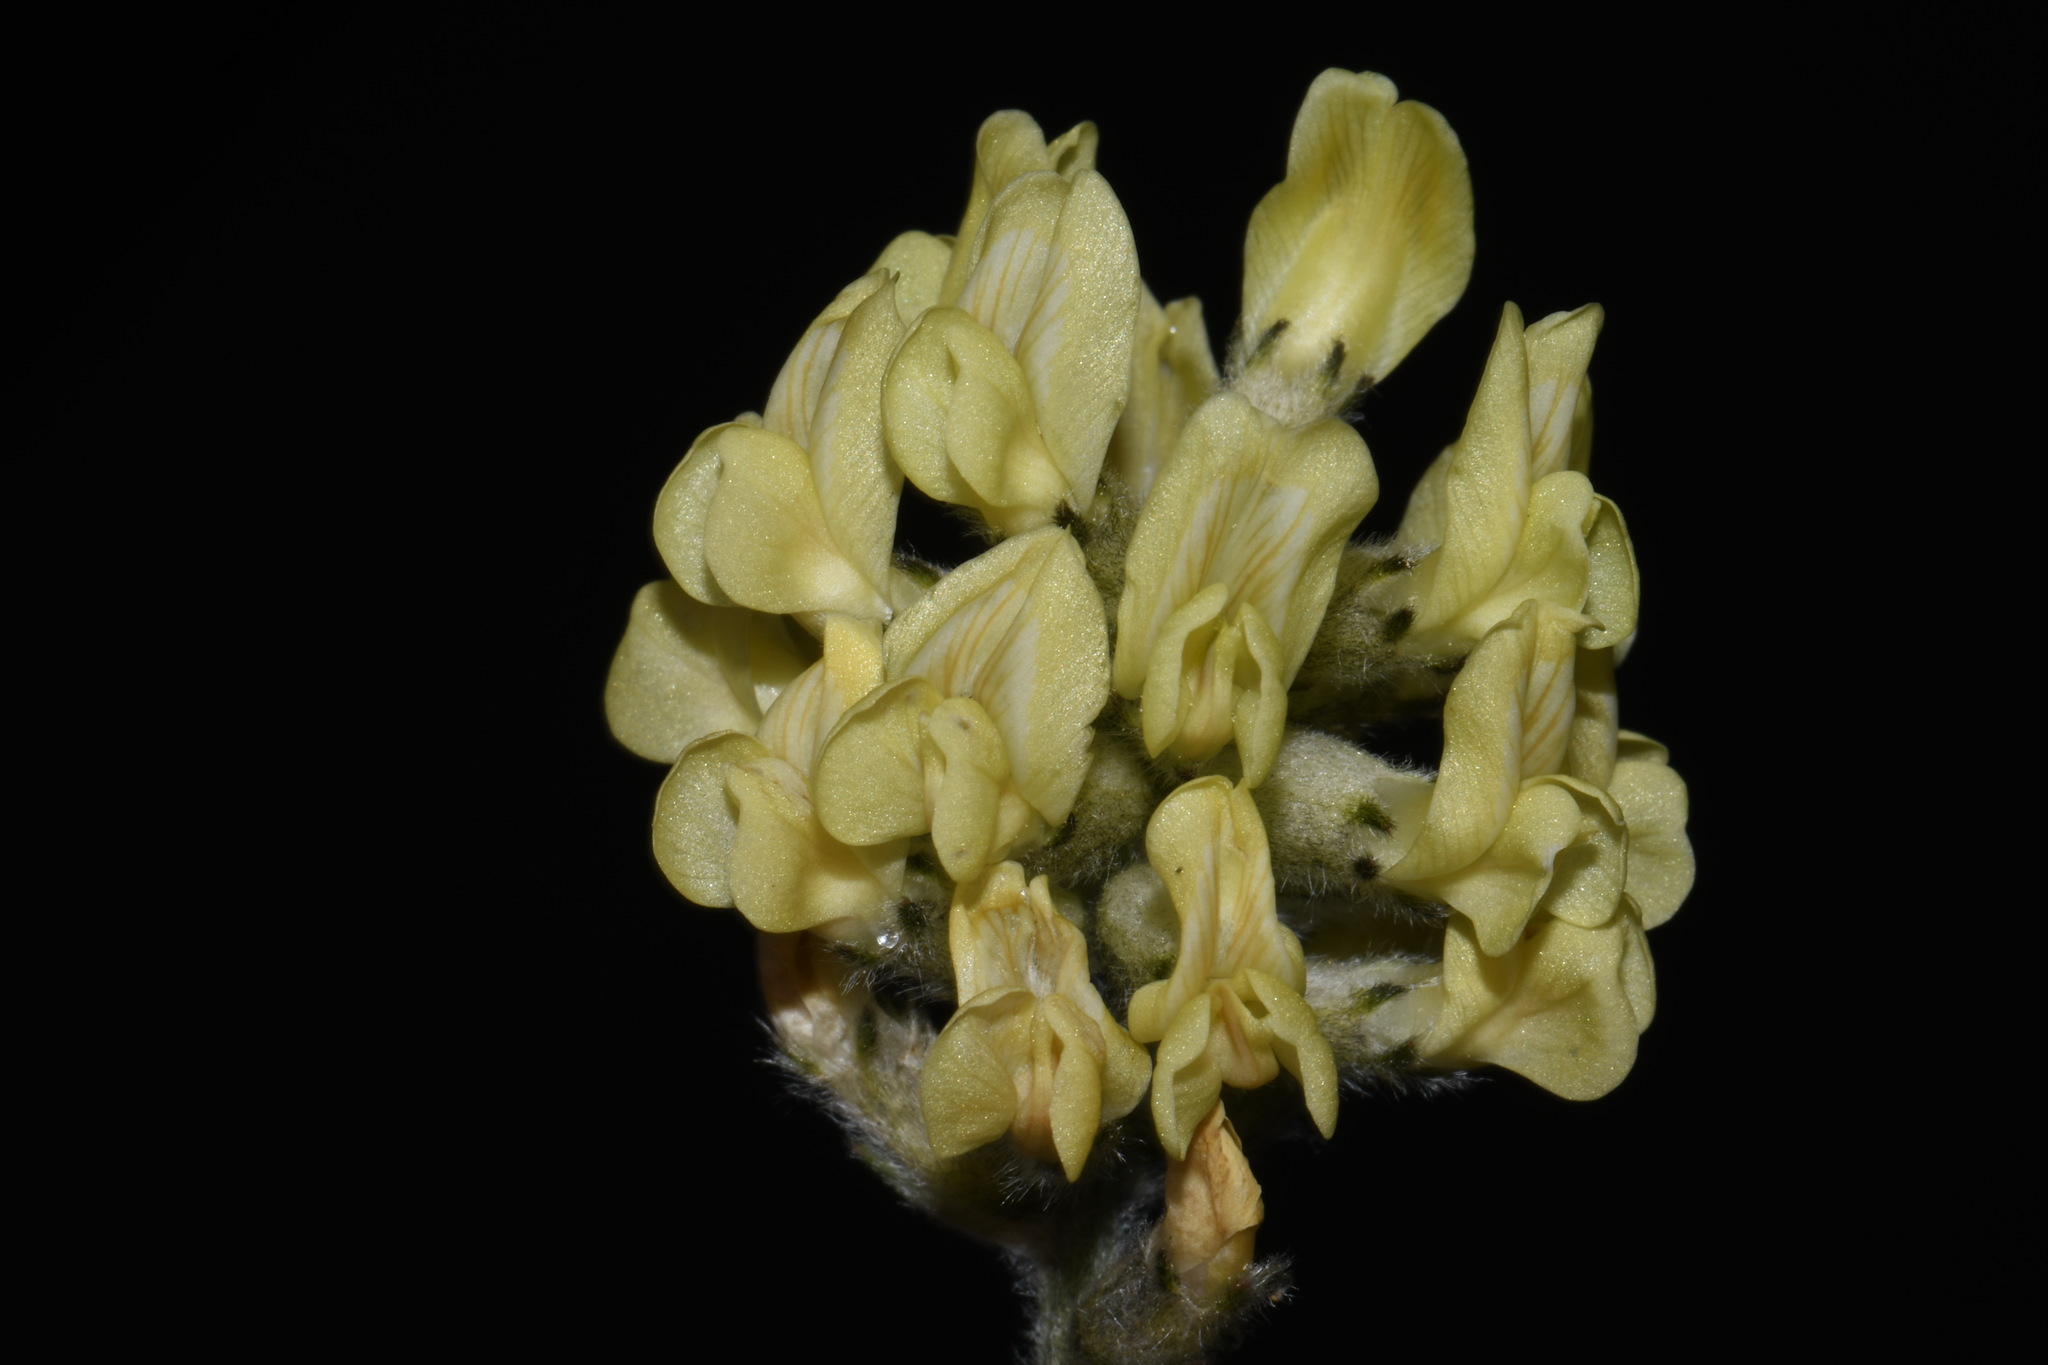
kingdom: Plantae
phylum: Tracheophyta
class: Magnoliopsida
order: Fabales
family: Fabaceae
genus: Oxytropis
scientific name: Oxytropis campestris
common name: Field locoweed
